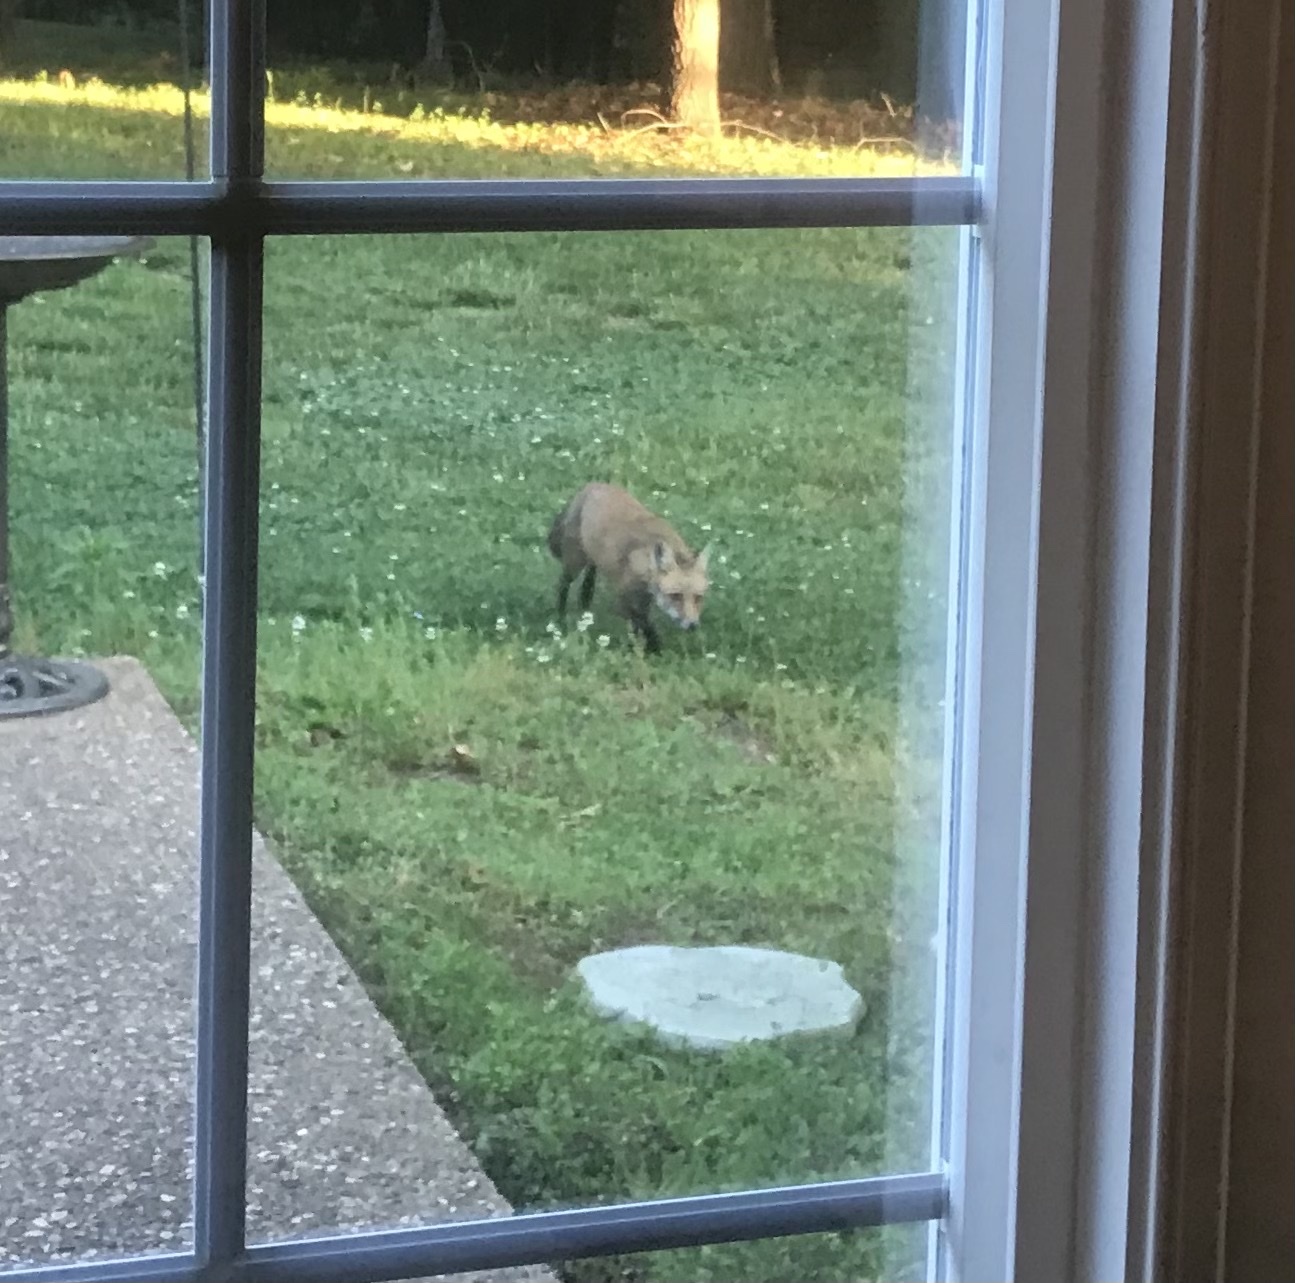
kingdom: Animalia
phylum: Chordata
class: Mammalia
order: Carnivora
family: Canidae
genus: Vulpes
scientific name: Vulpes vulpes
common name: Red fox
